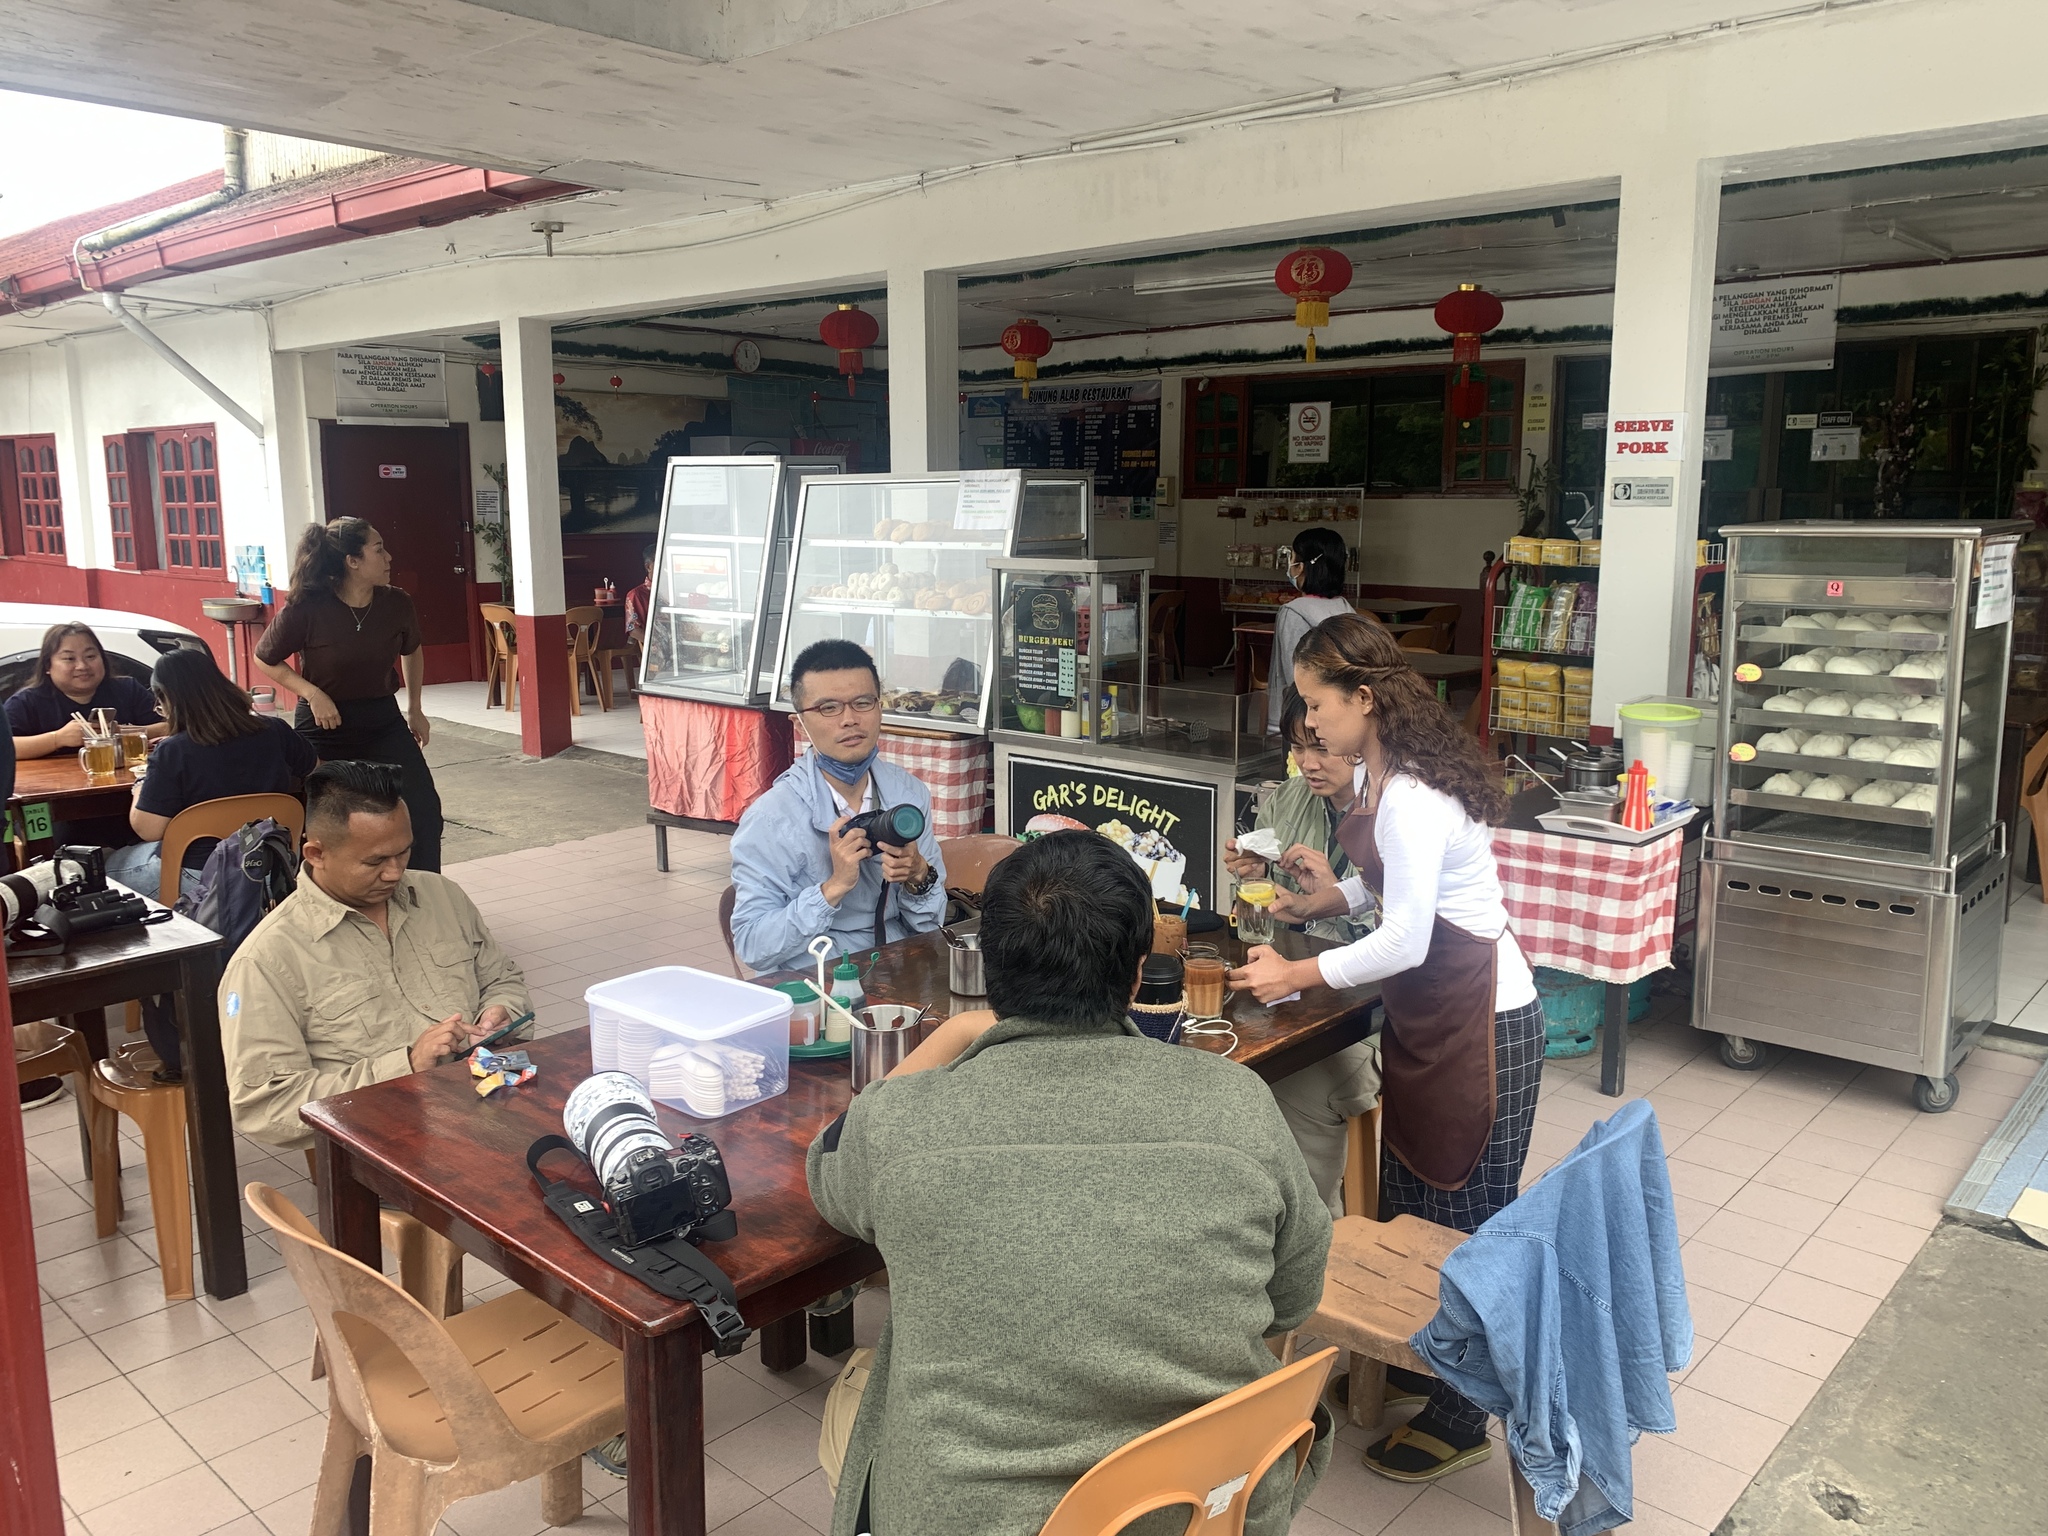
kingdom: Animalia
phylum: Chordata
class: Aves
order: Apodiformes
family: Apodidae
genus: Collocalia
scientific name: Collocalia affinis
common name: Plume-toed swiftlet
